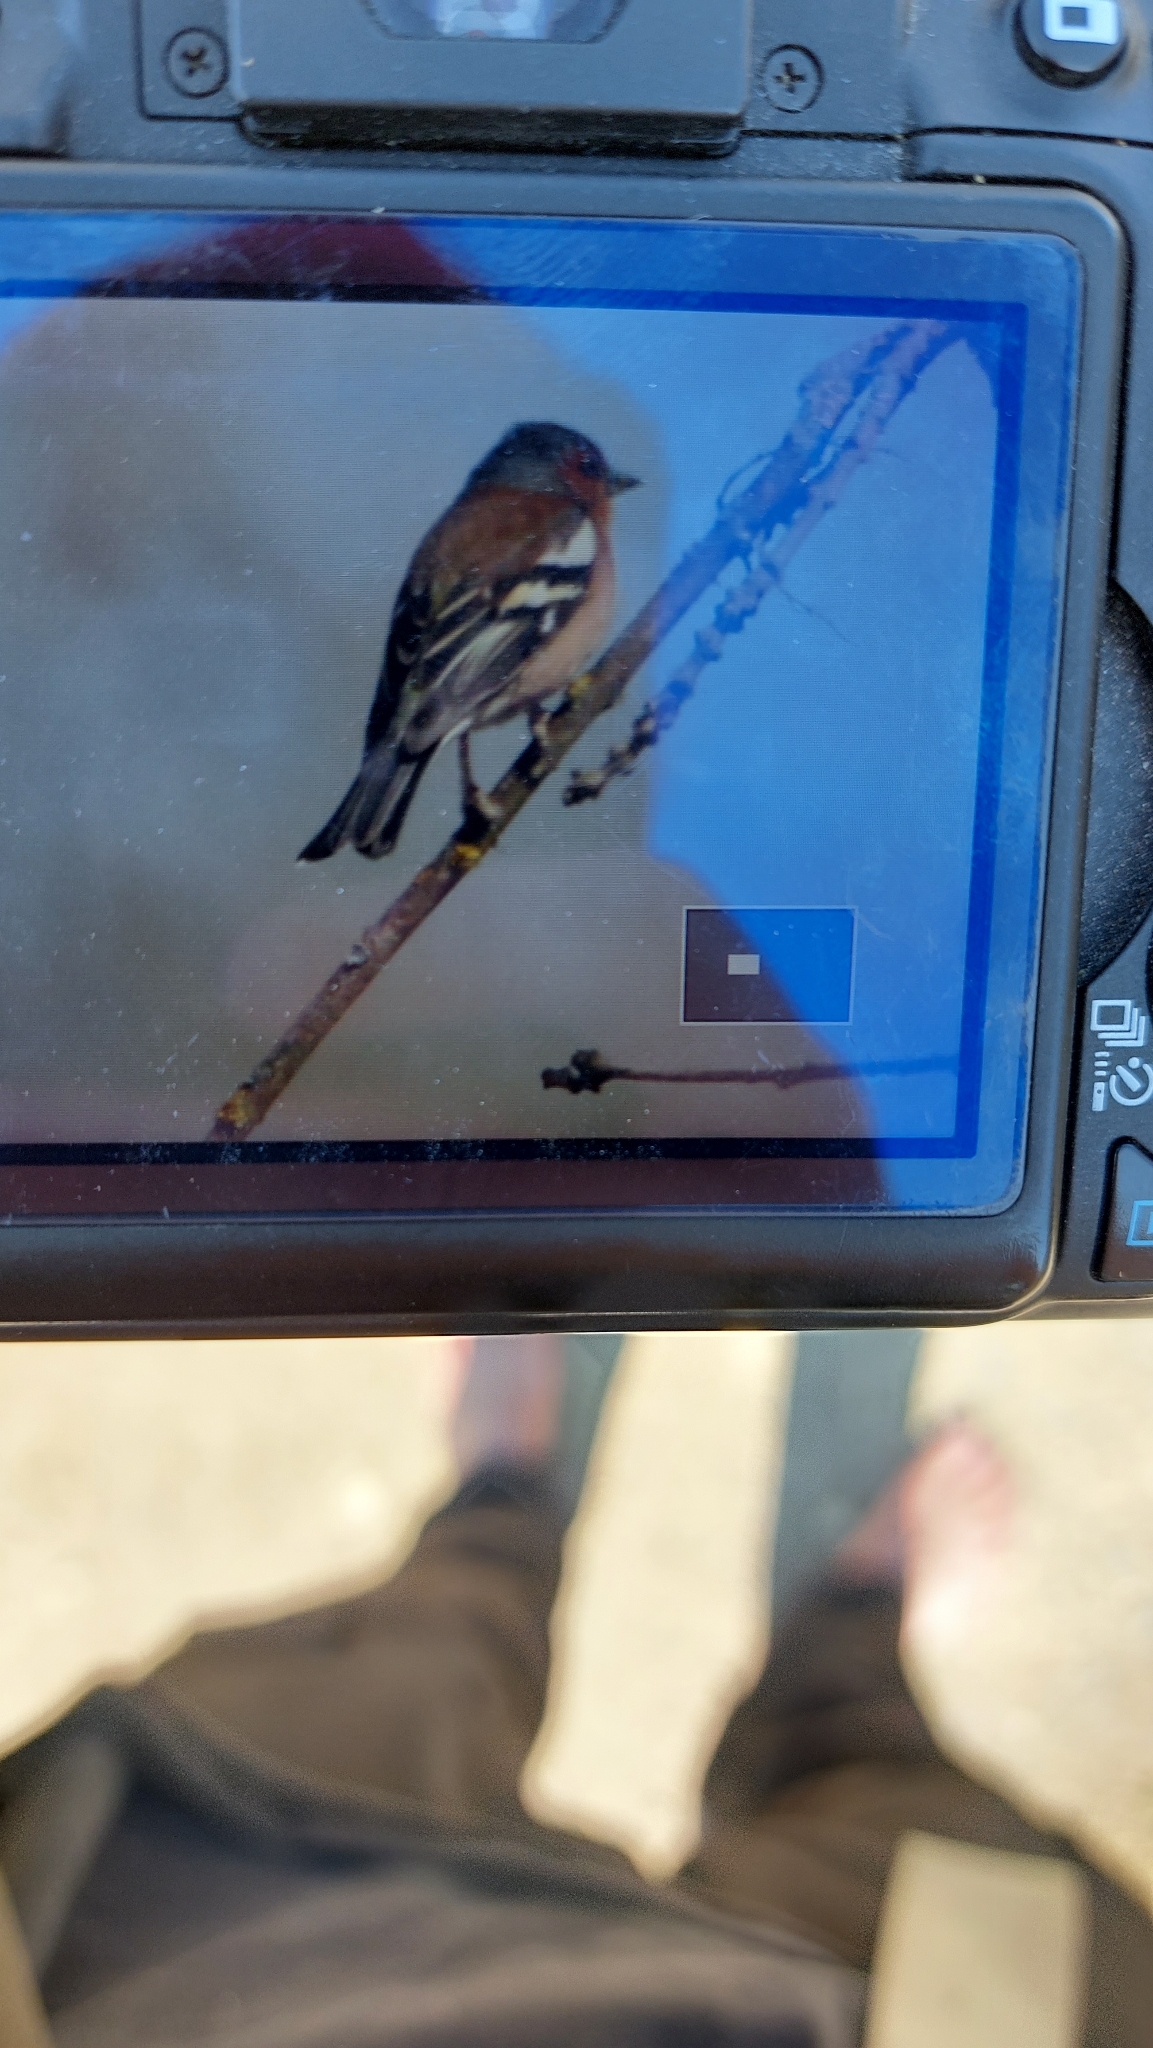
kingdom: Animalia
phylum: Chordata
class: Aves
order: Passeriformes
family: Fringillidae
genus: Fringilla
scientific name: Fringilla coelebs
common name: Common chaffinch
